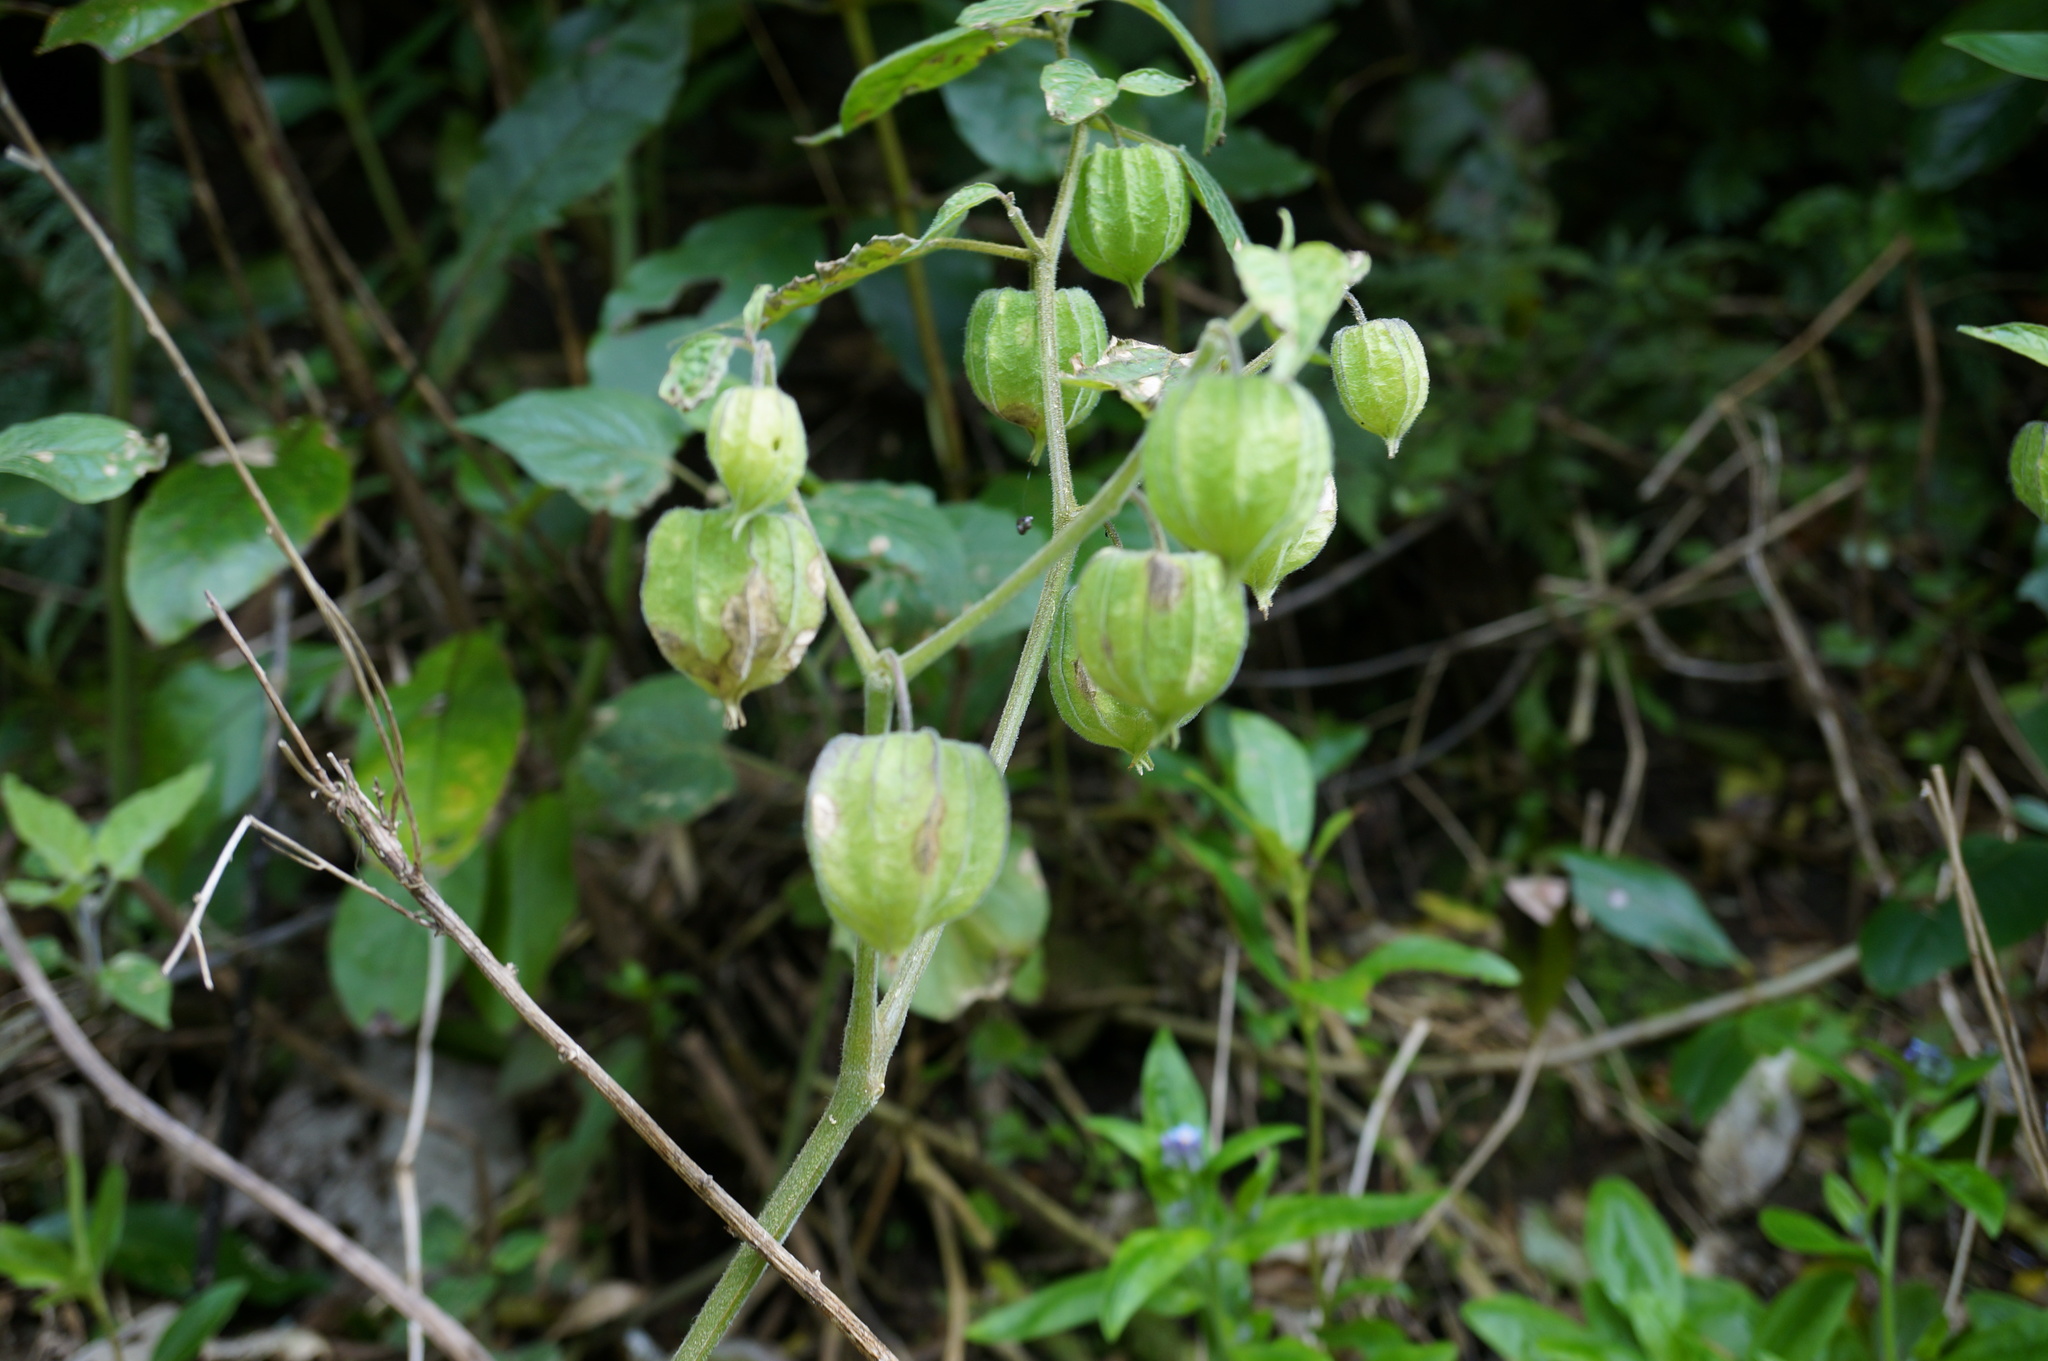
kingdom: Plantae
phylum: Tracheophyta
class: Magnoliopsida
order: Solanales
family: Solanaceae
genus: Physalis
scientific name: Physalis peruviana
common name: Cape-gooseberry
